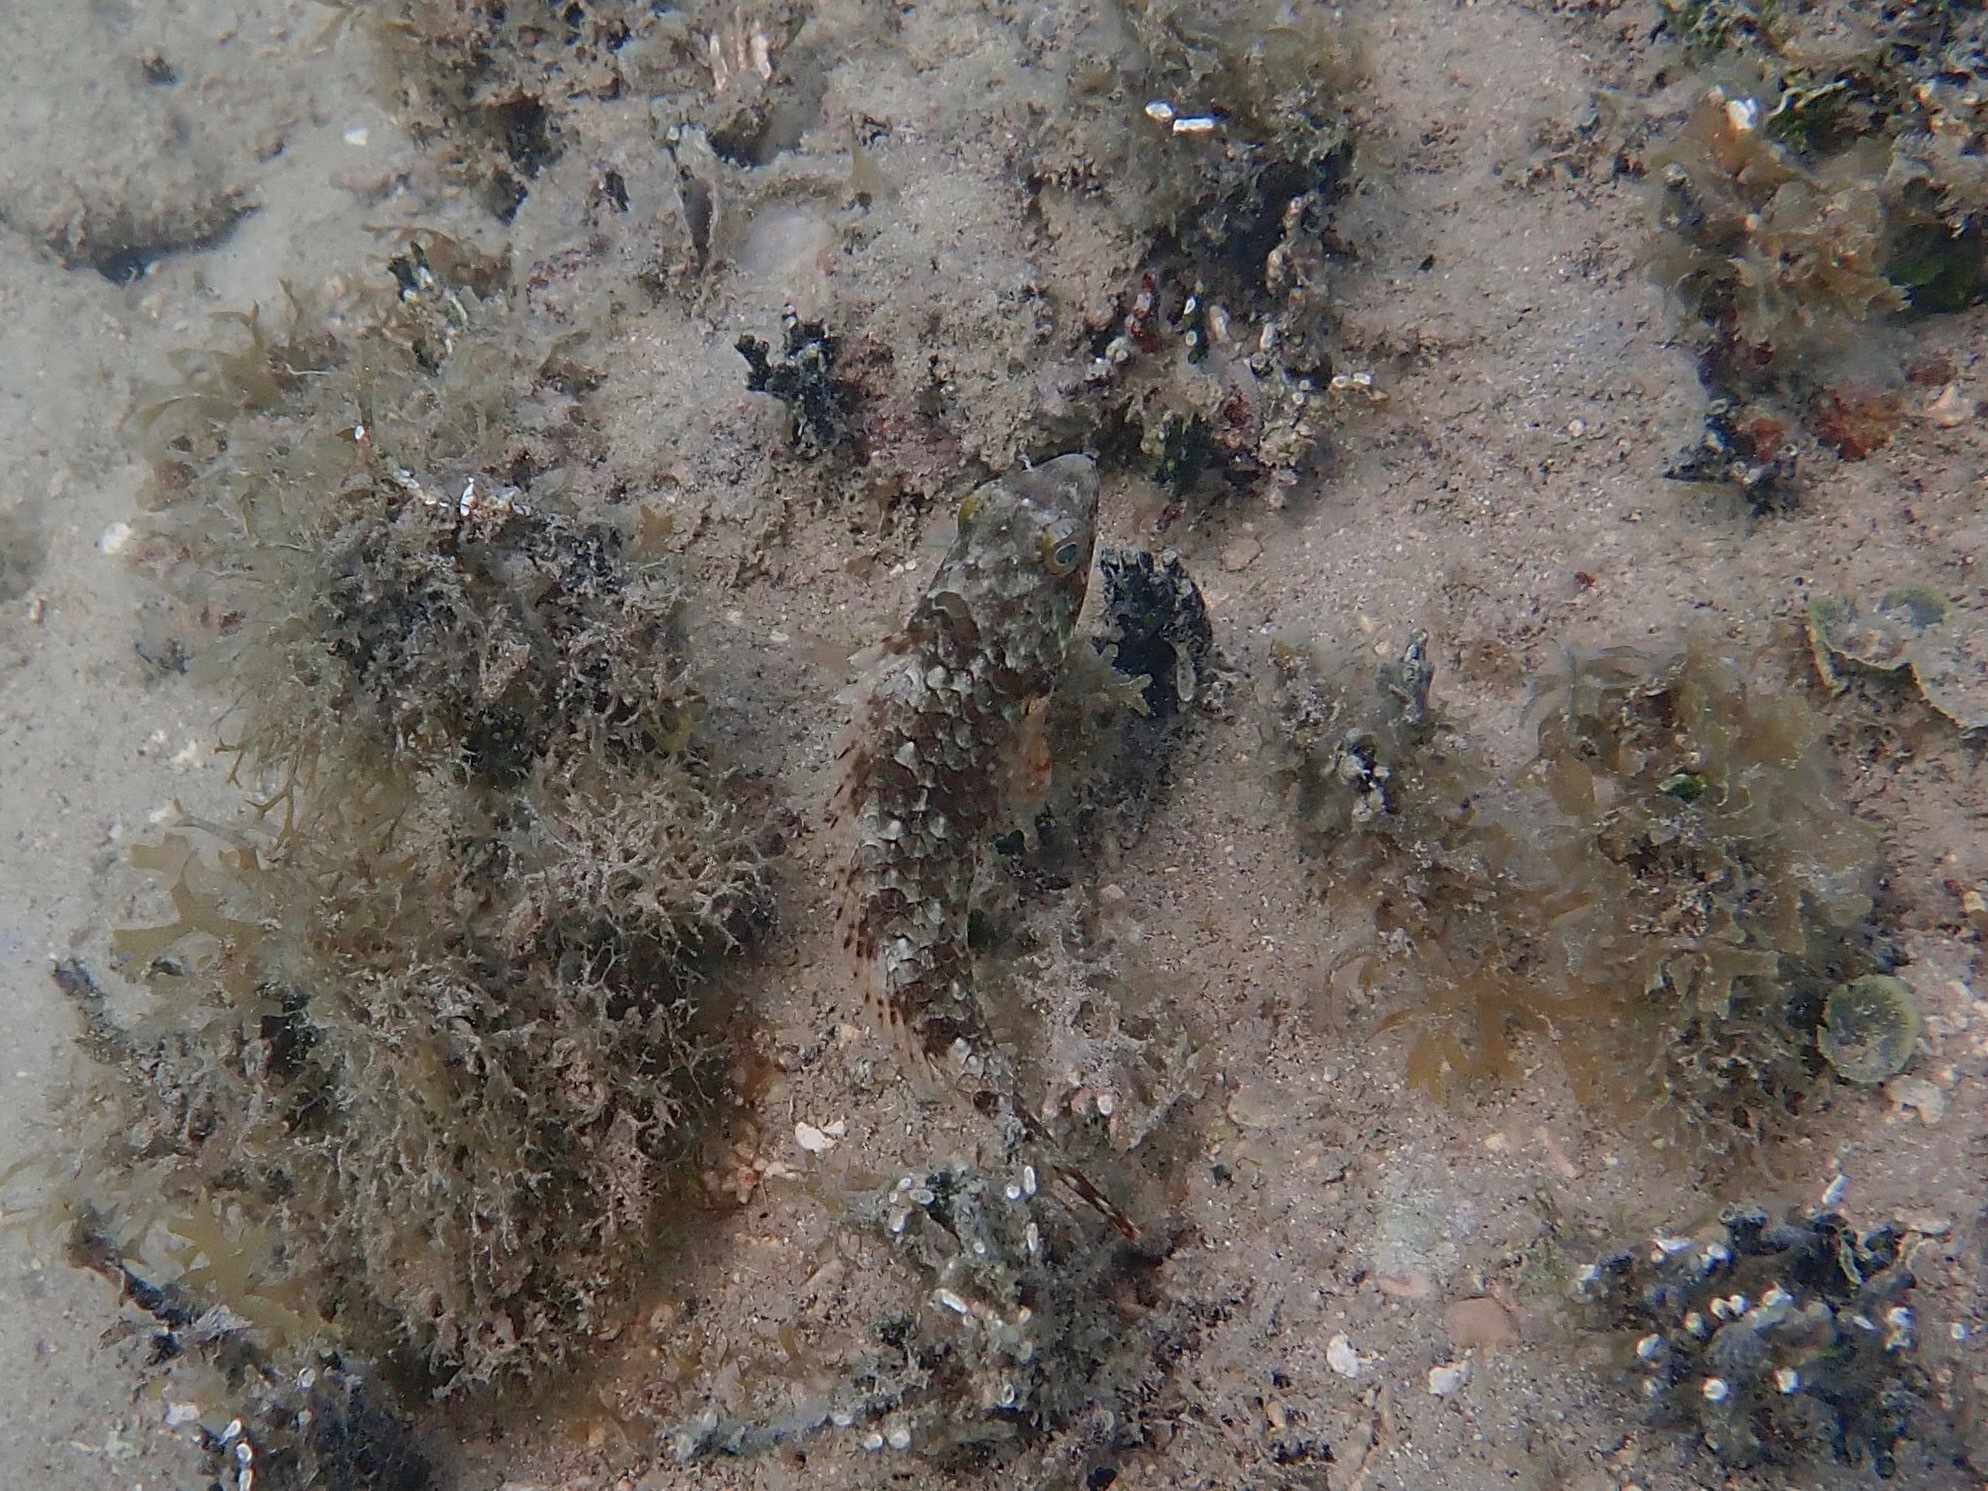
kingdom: Animalia
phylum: Chordata
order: Perciformes
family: Scaridae
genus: Sparisoma
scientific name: Sparisoma
